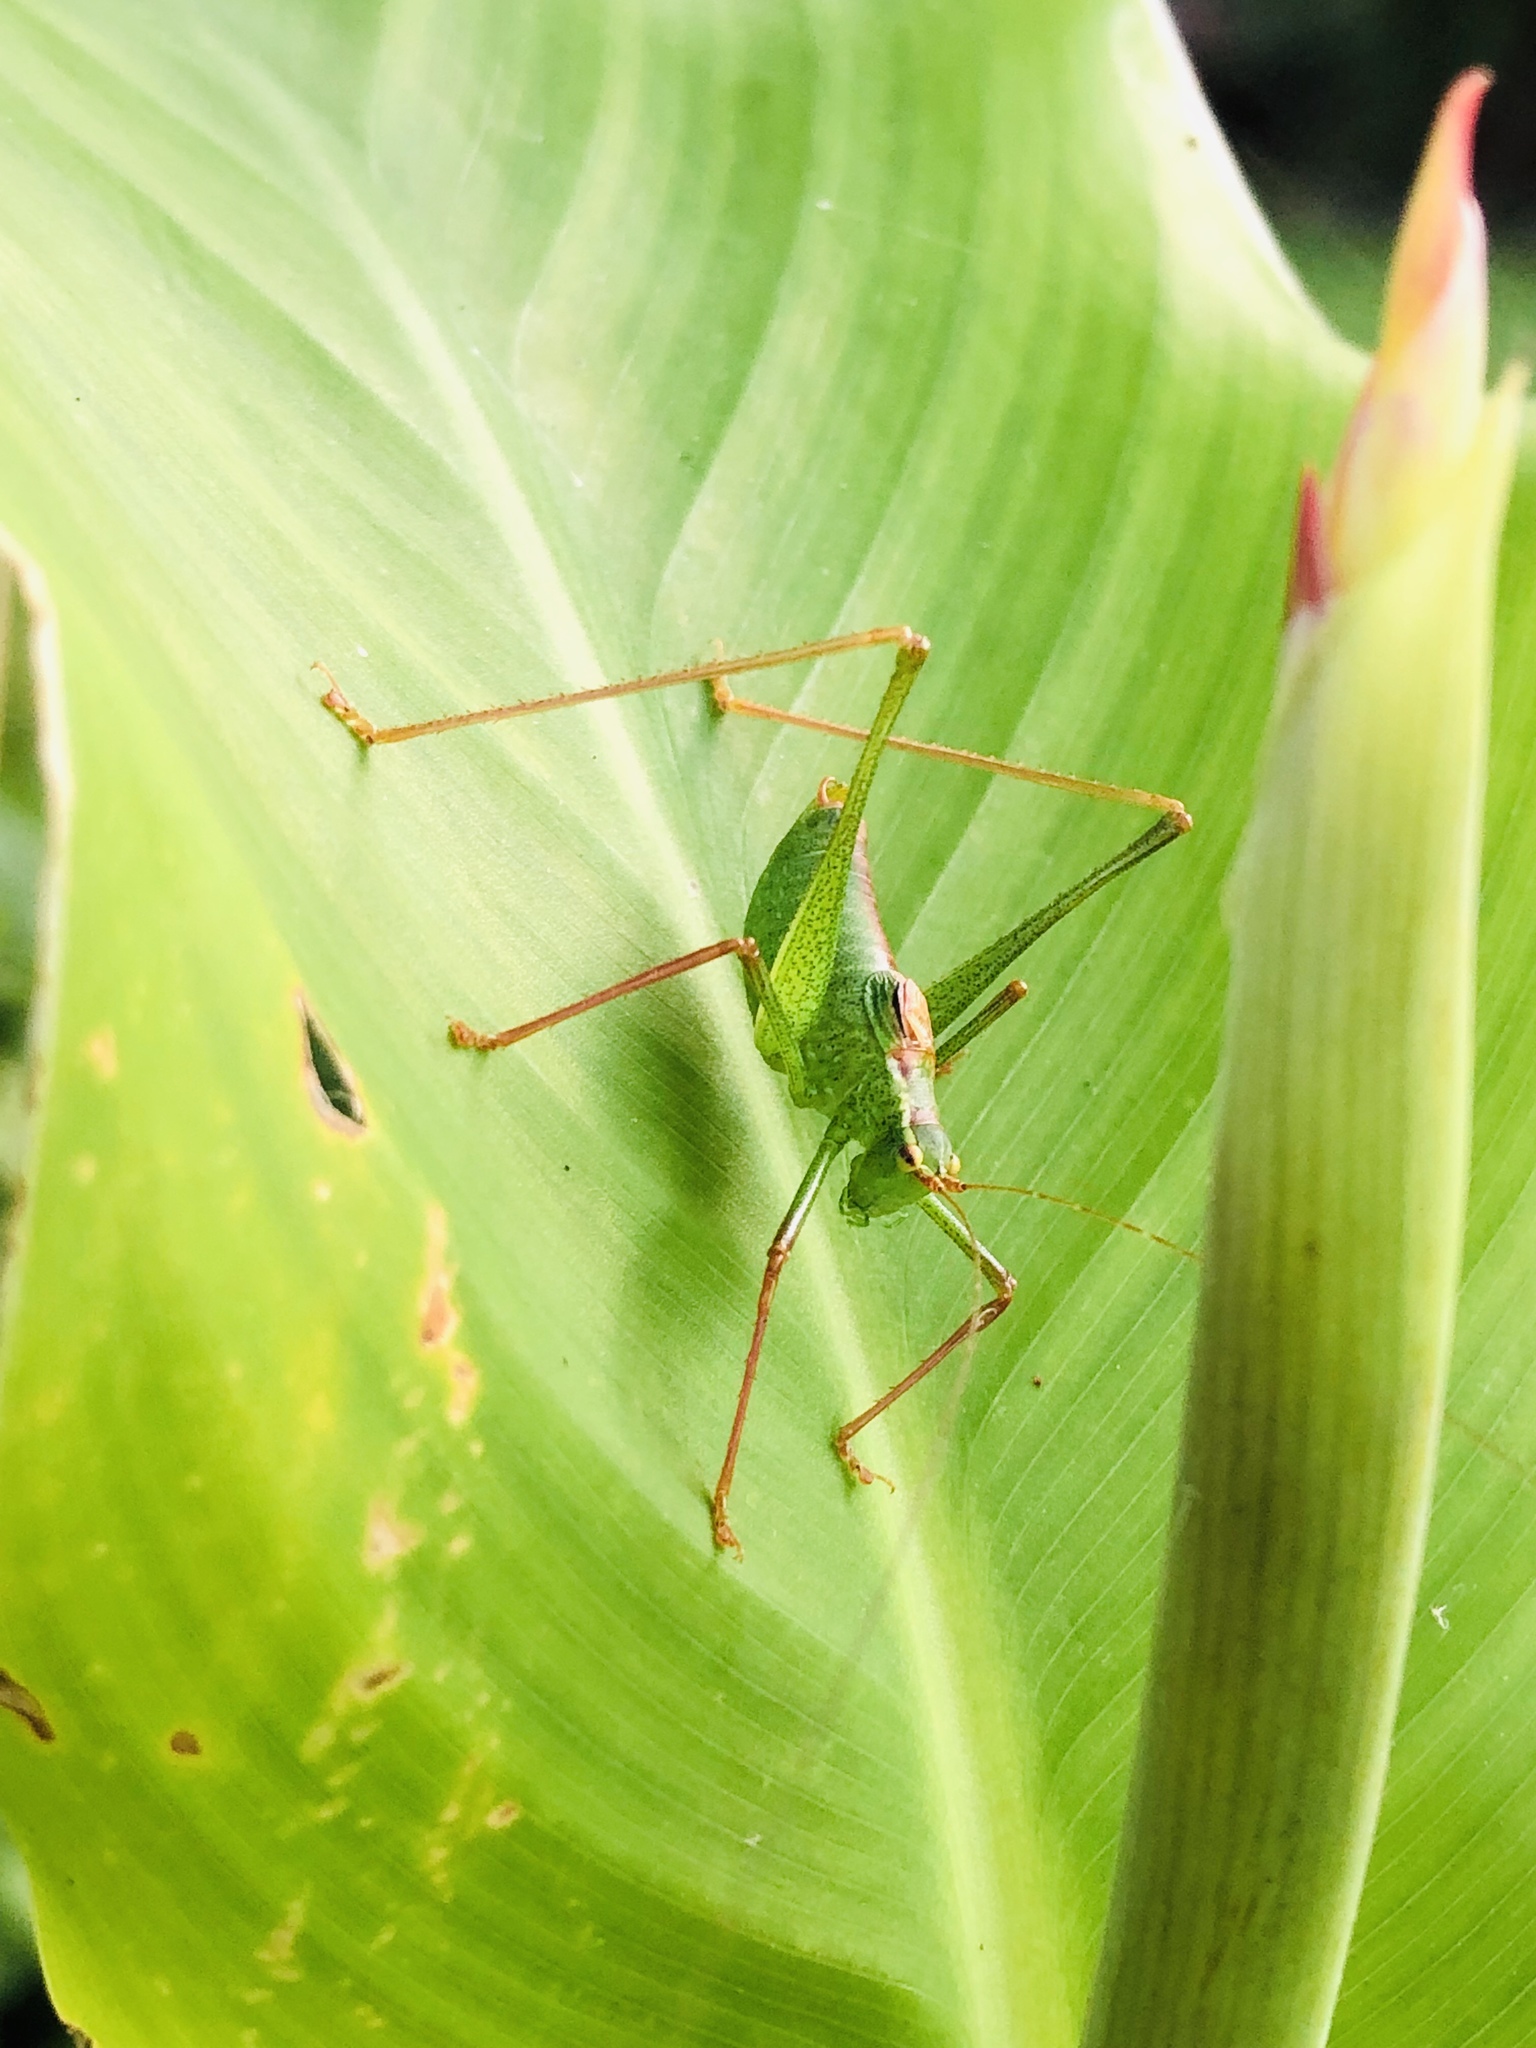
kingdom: Animalia
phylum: Arthropoda
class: Insecta
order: Orthoptera
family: Tettigoniidae
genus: Leptophyes
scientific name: Leptophyes punctatissima
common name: Speckled bush-cricket
